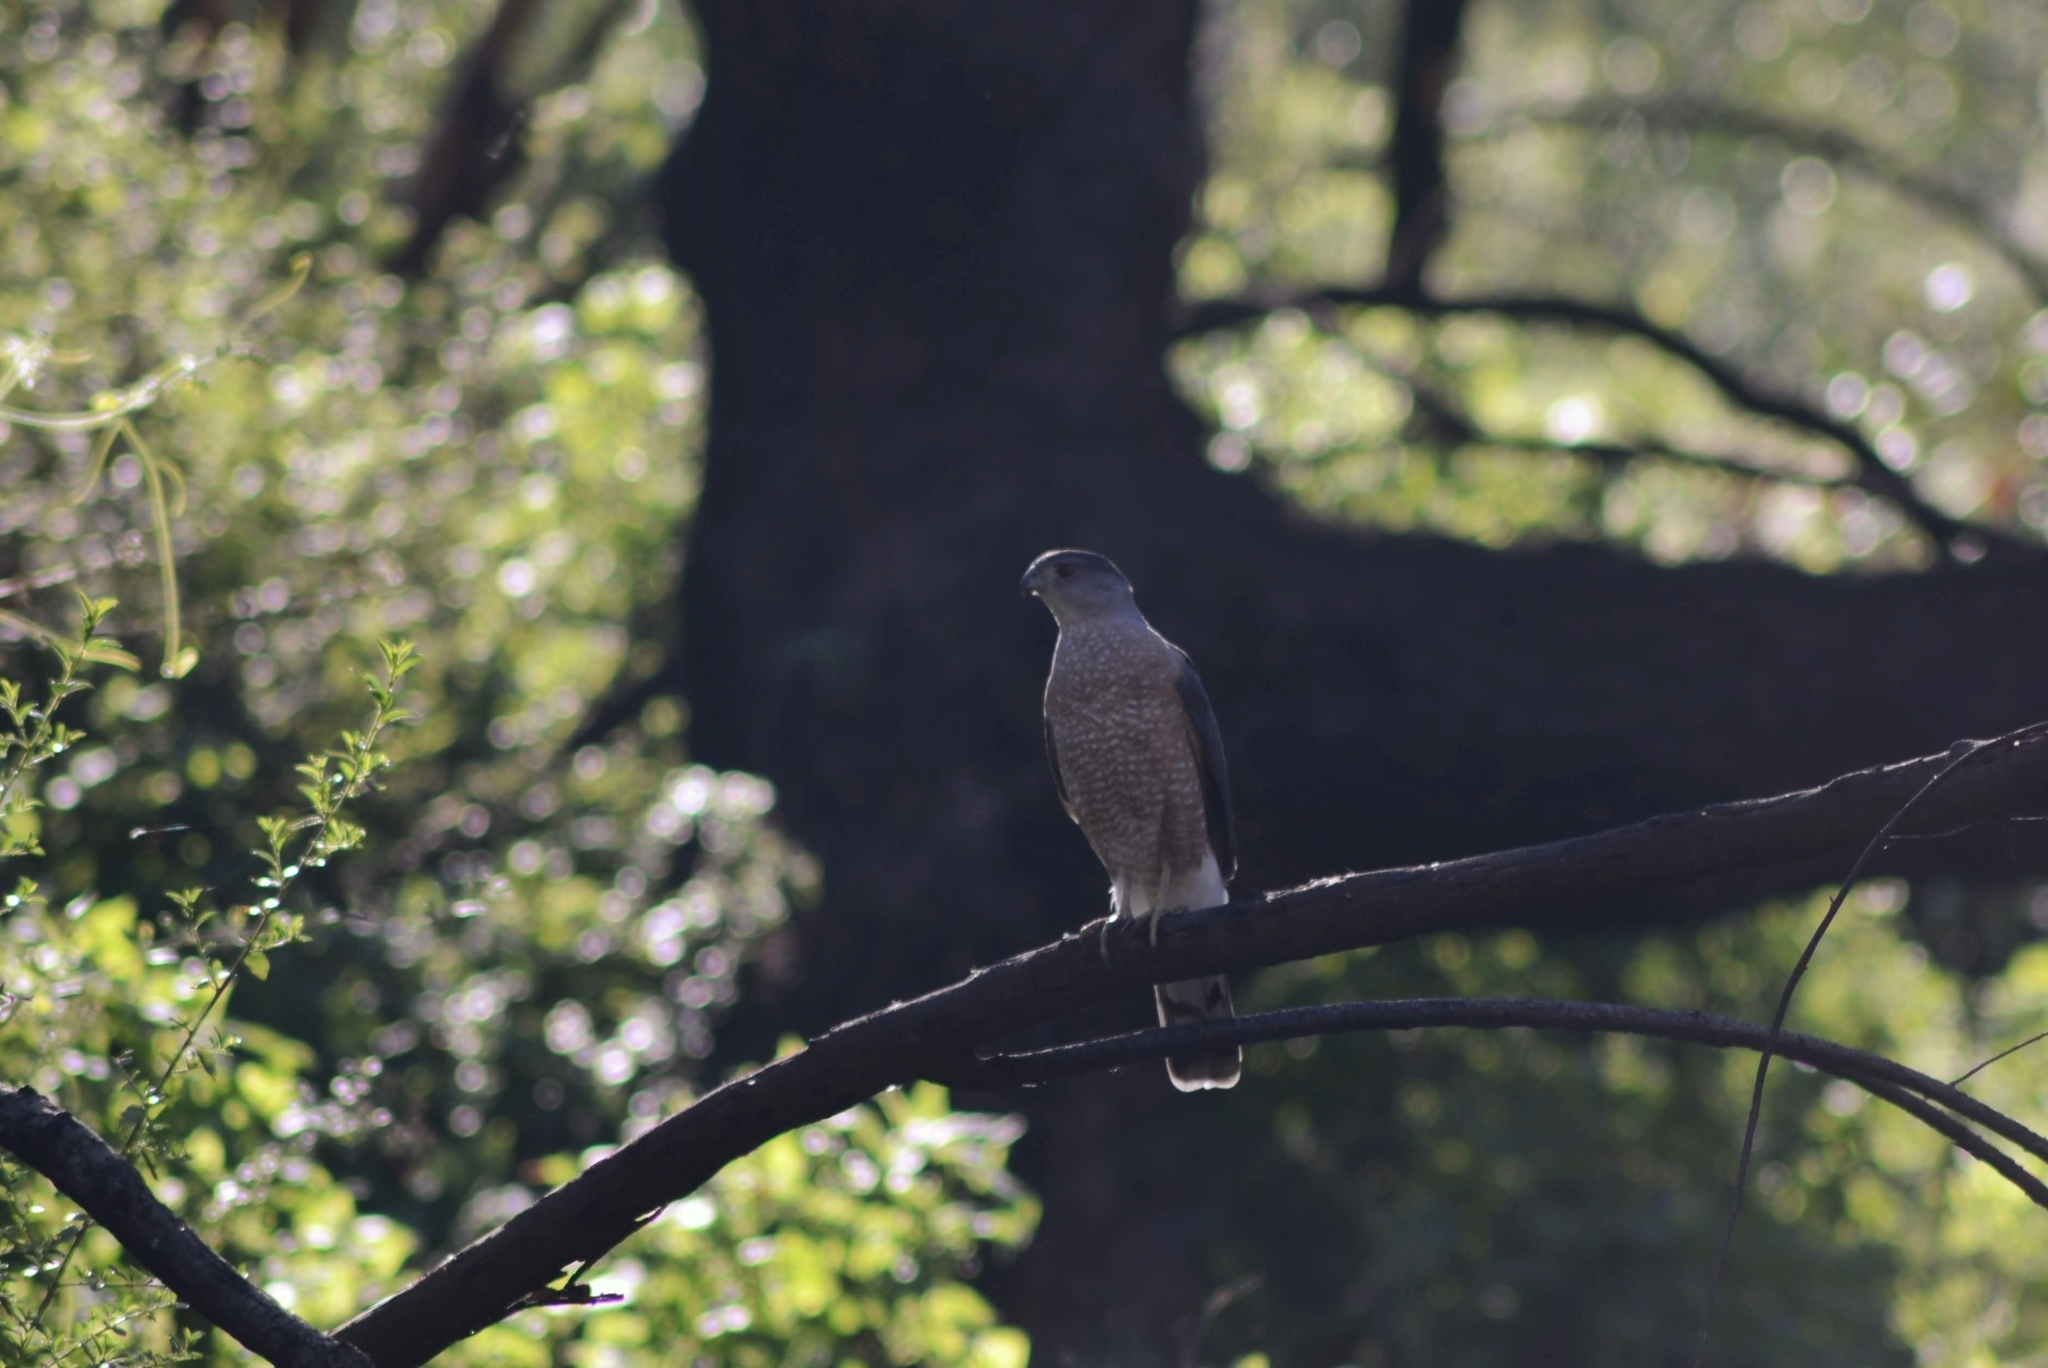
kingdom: Animalia
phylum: Chordata
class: Aves
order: Accipitriformes
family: Accipitridae
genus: Accipiter
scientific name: Accipiter cooperii
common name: Cooper's hawk
